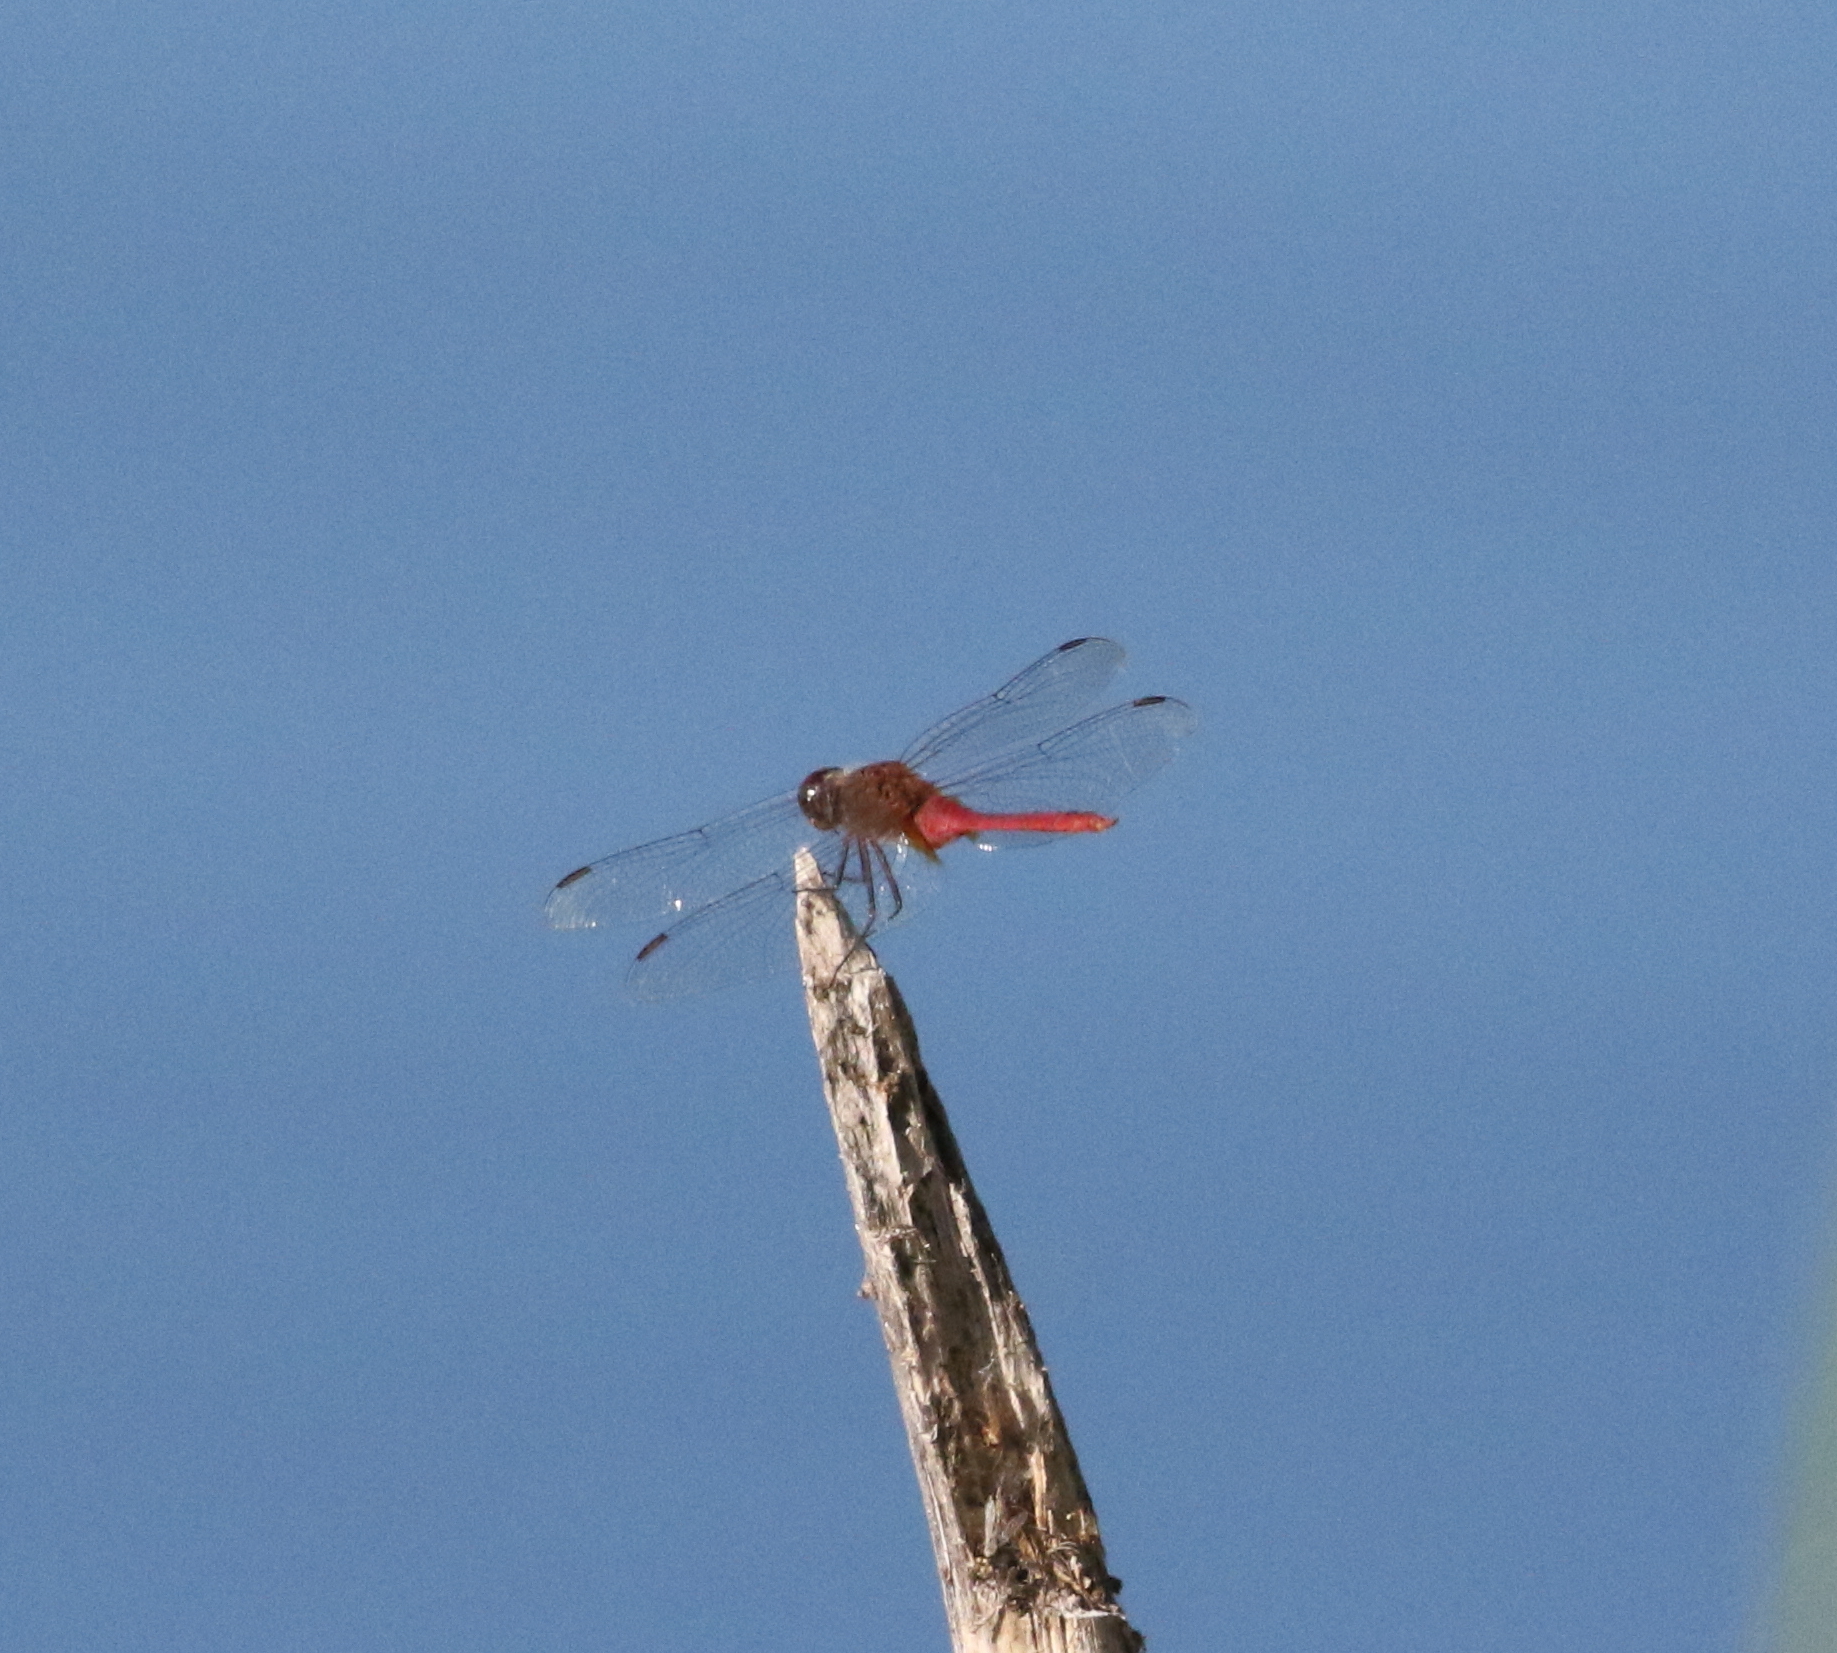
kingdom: Animalia
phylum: Arthropoda
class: Insecta
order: Odonata
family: Libellulidae
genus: Brachymesia
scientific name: Brachymesia furcata
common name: Red-taled pennant
